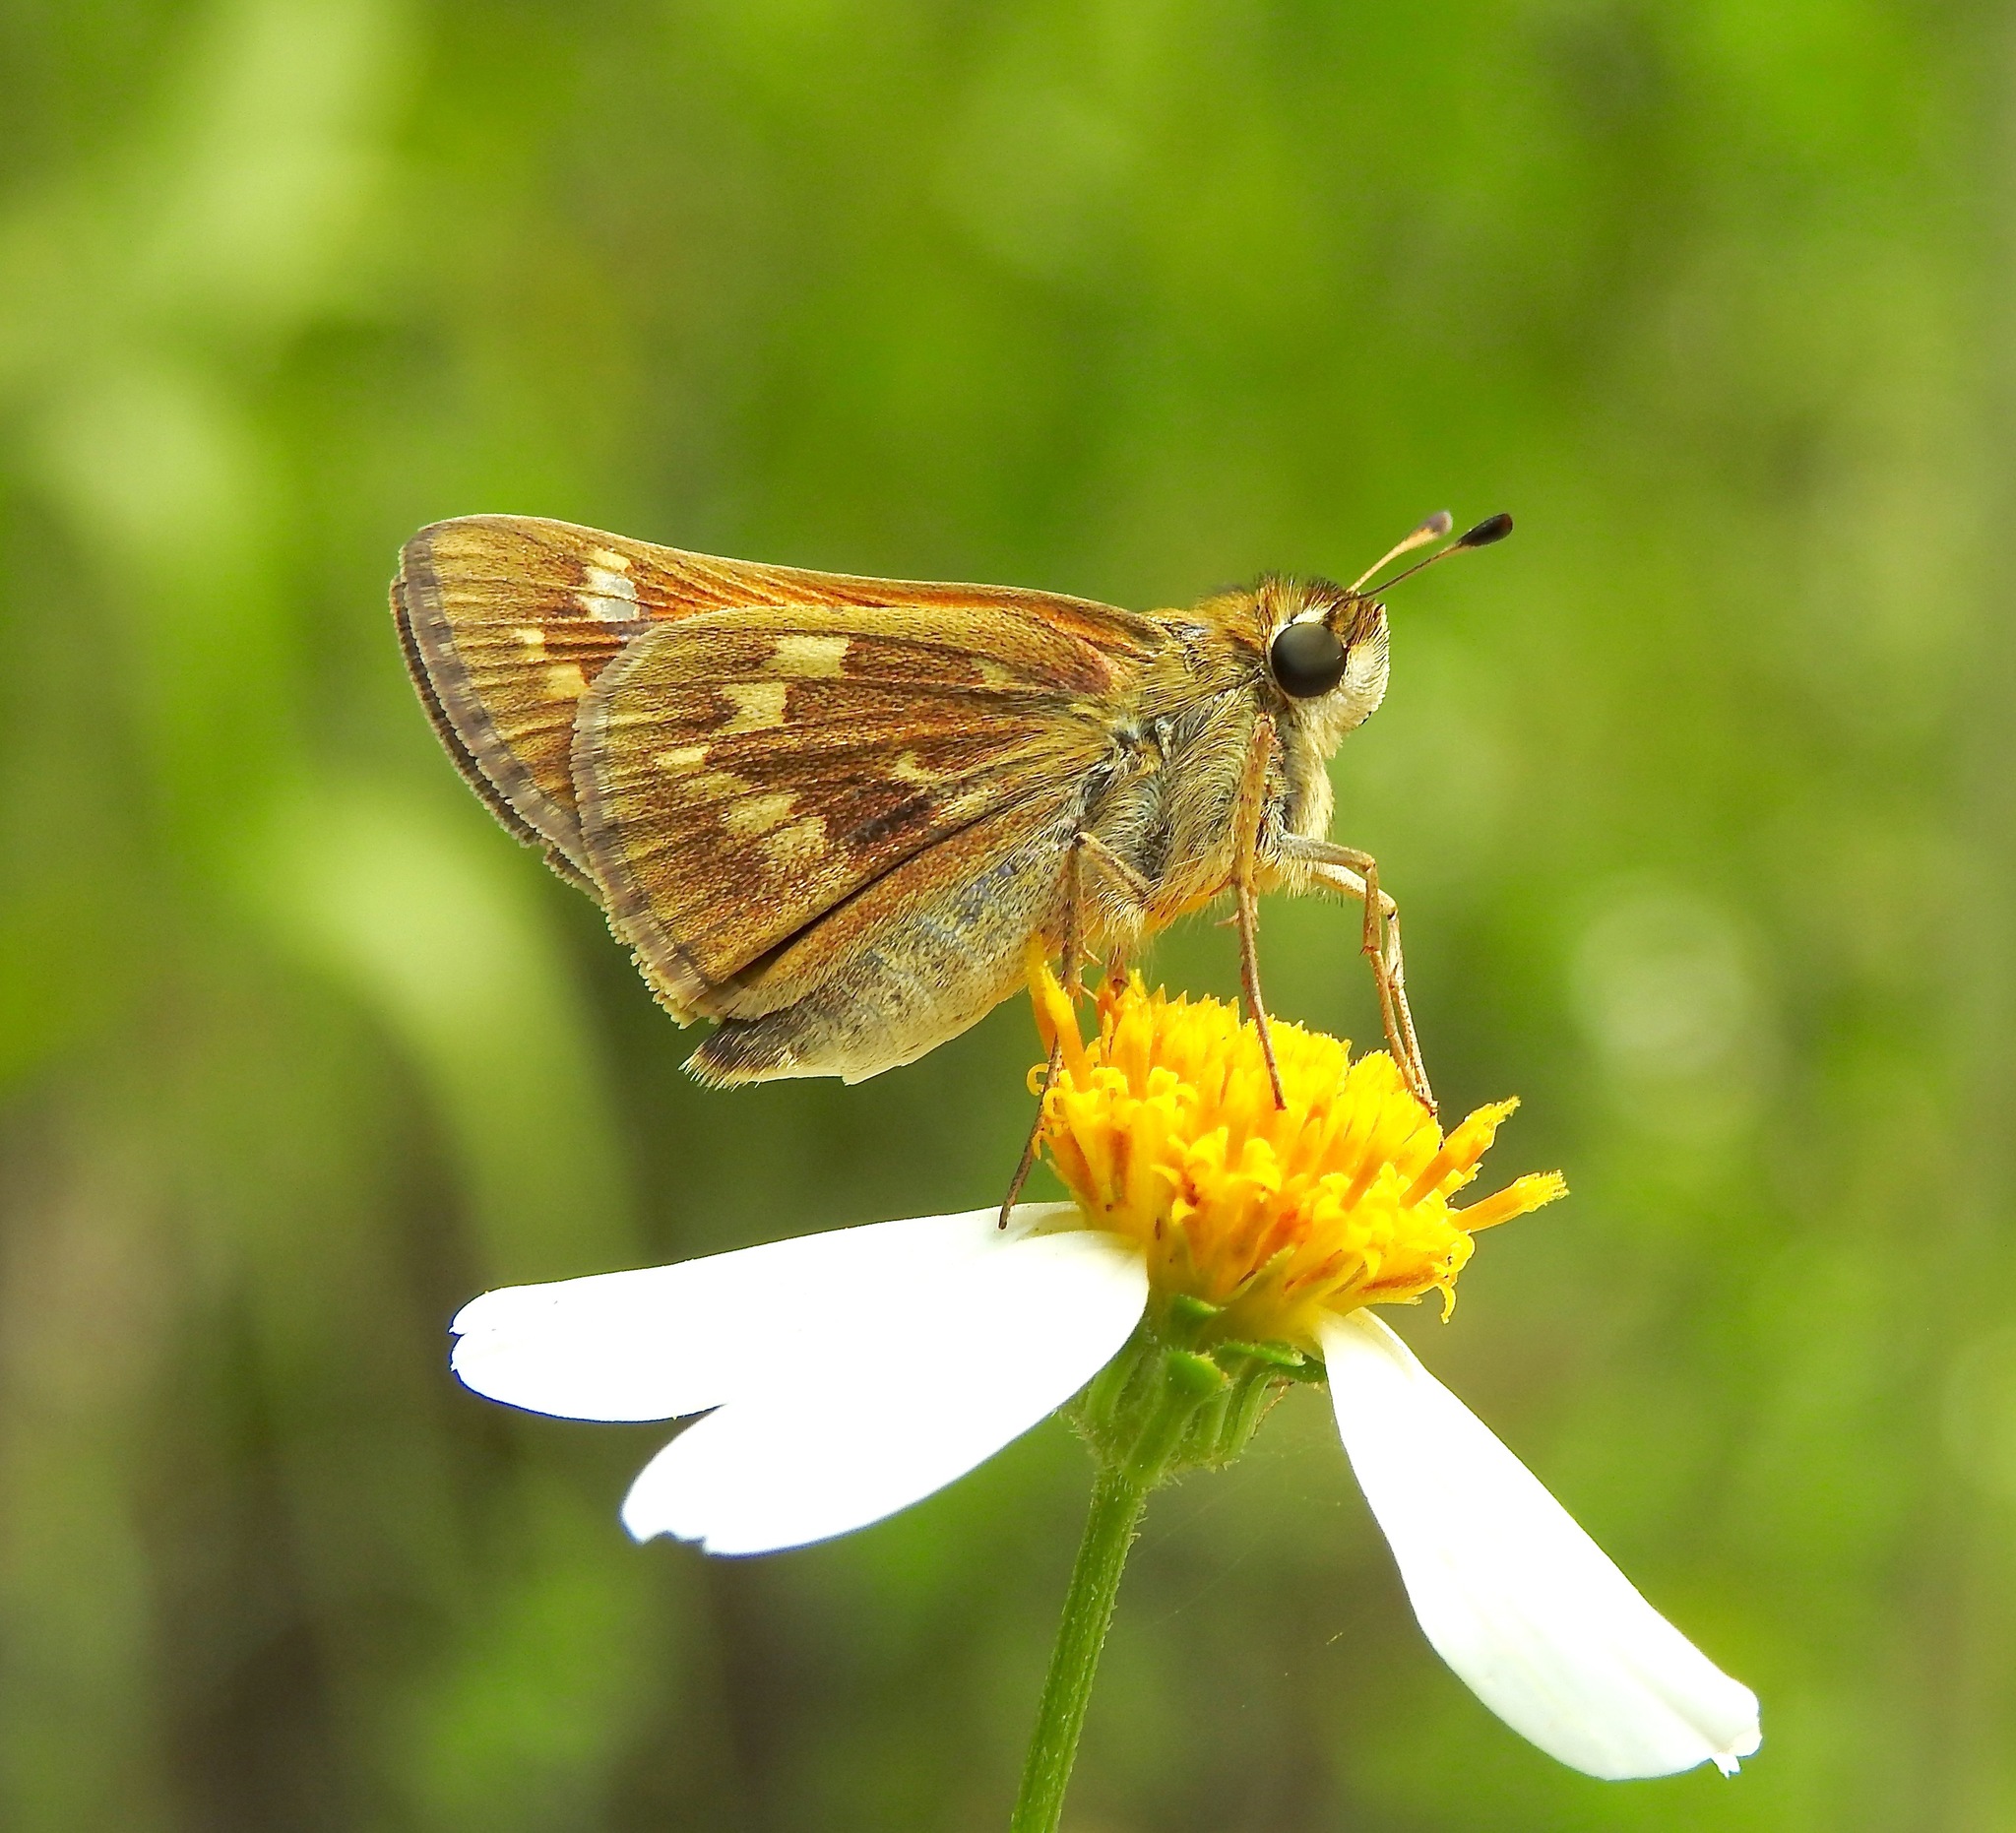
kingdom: Animalia
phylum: Arthropoda
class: Insecta
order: Lepidoptera
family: Hesperiidae
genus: Atalopedes
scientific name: Atalopedes
